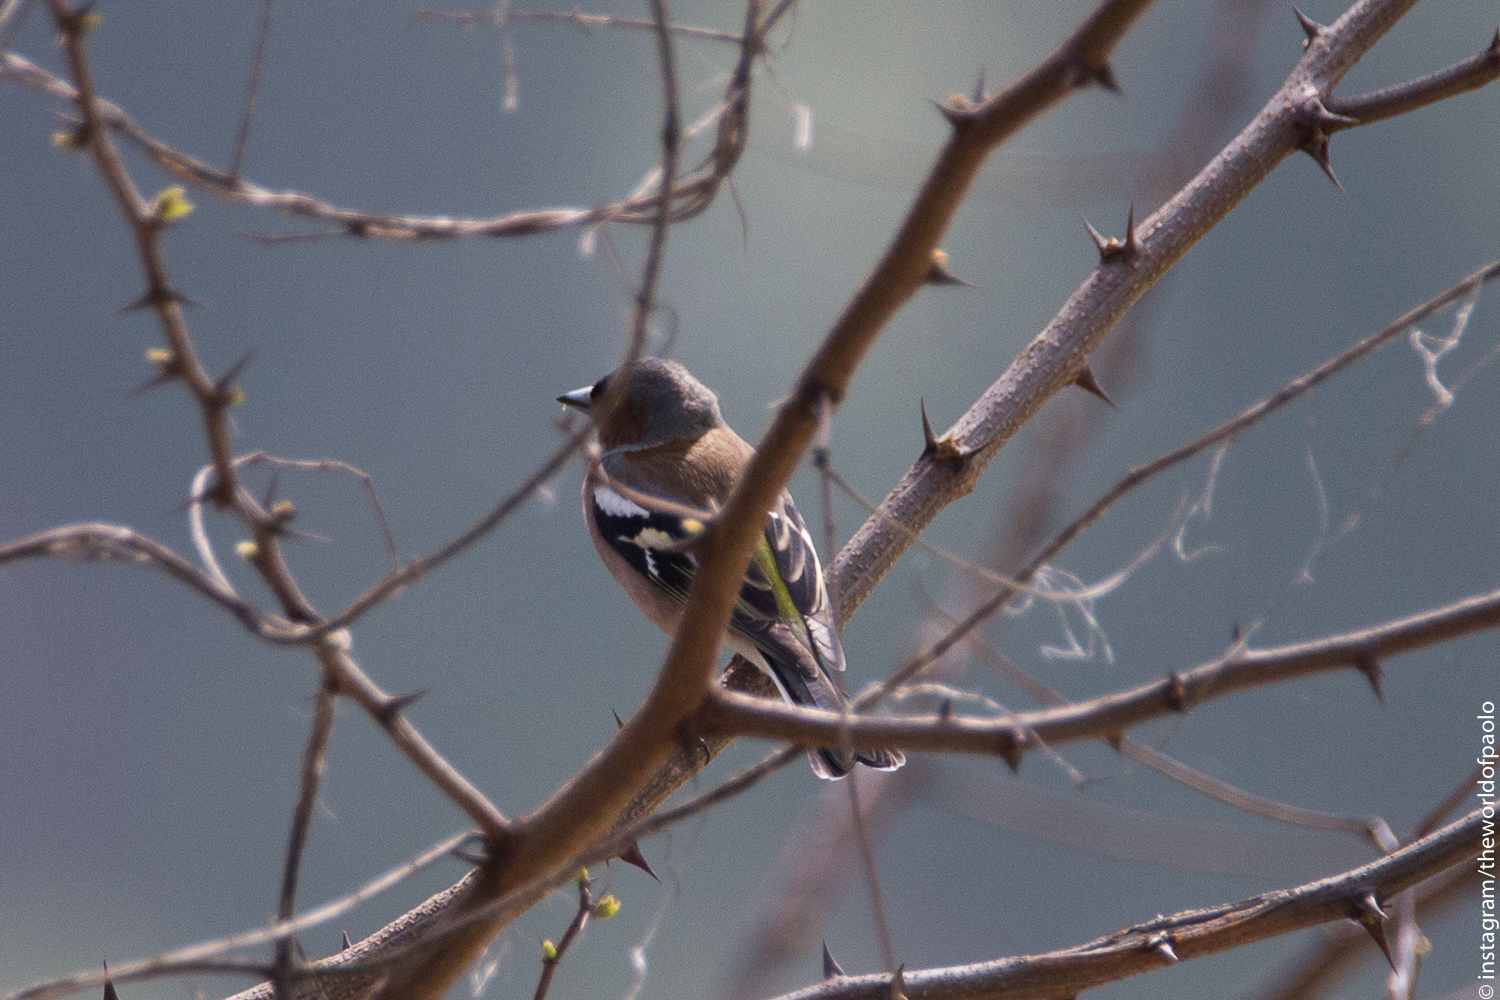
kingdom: Animalia
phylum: Chordata
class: Aves
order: Passeriformes
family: Fringillidae
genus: Fringilla
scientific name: Fringilla coelebs
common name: Common chaffinch
